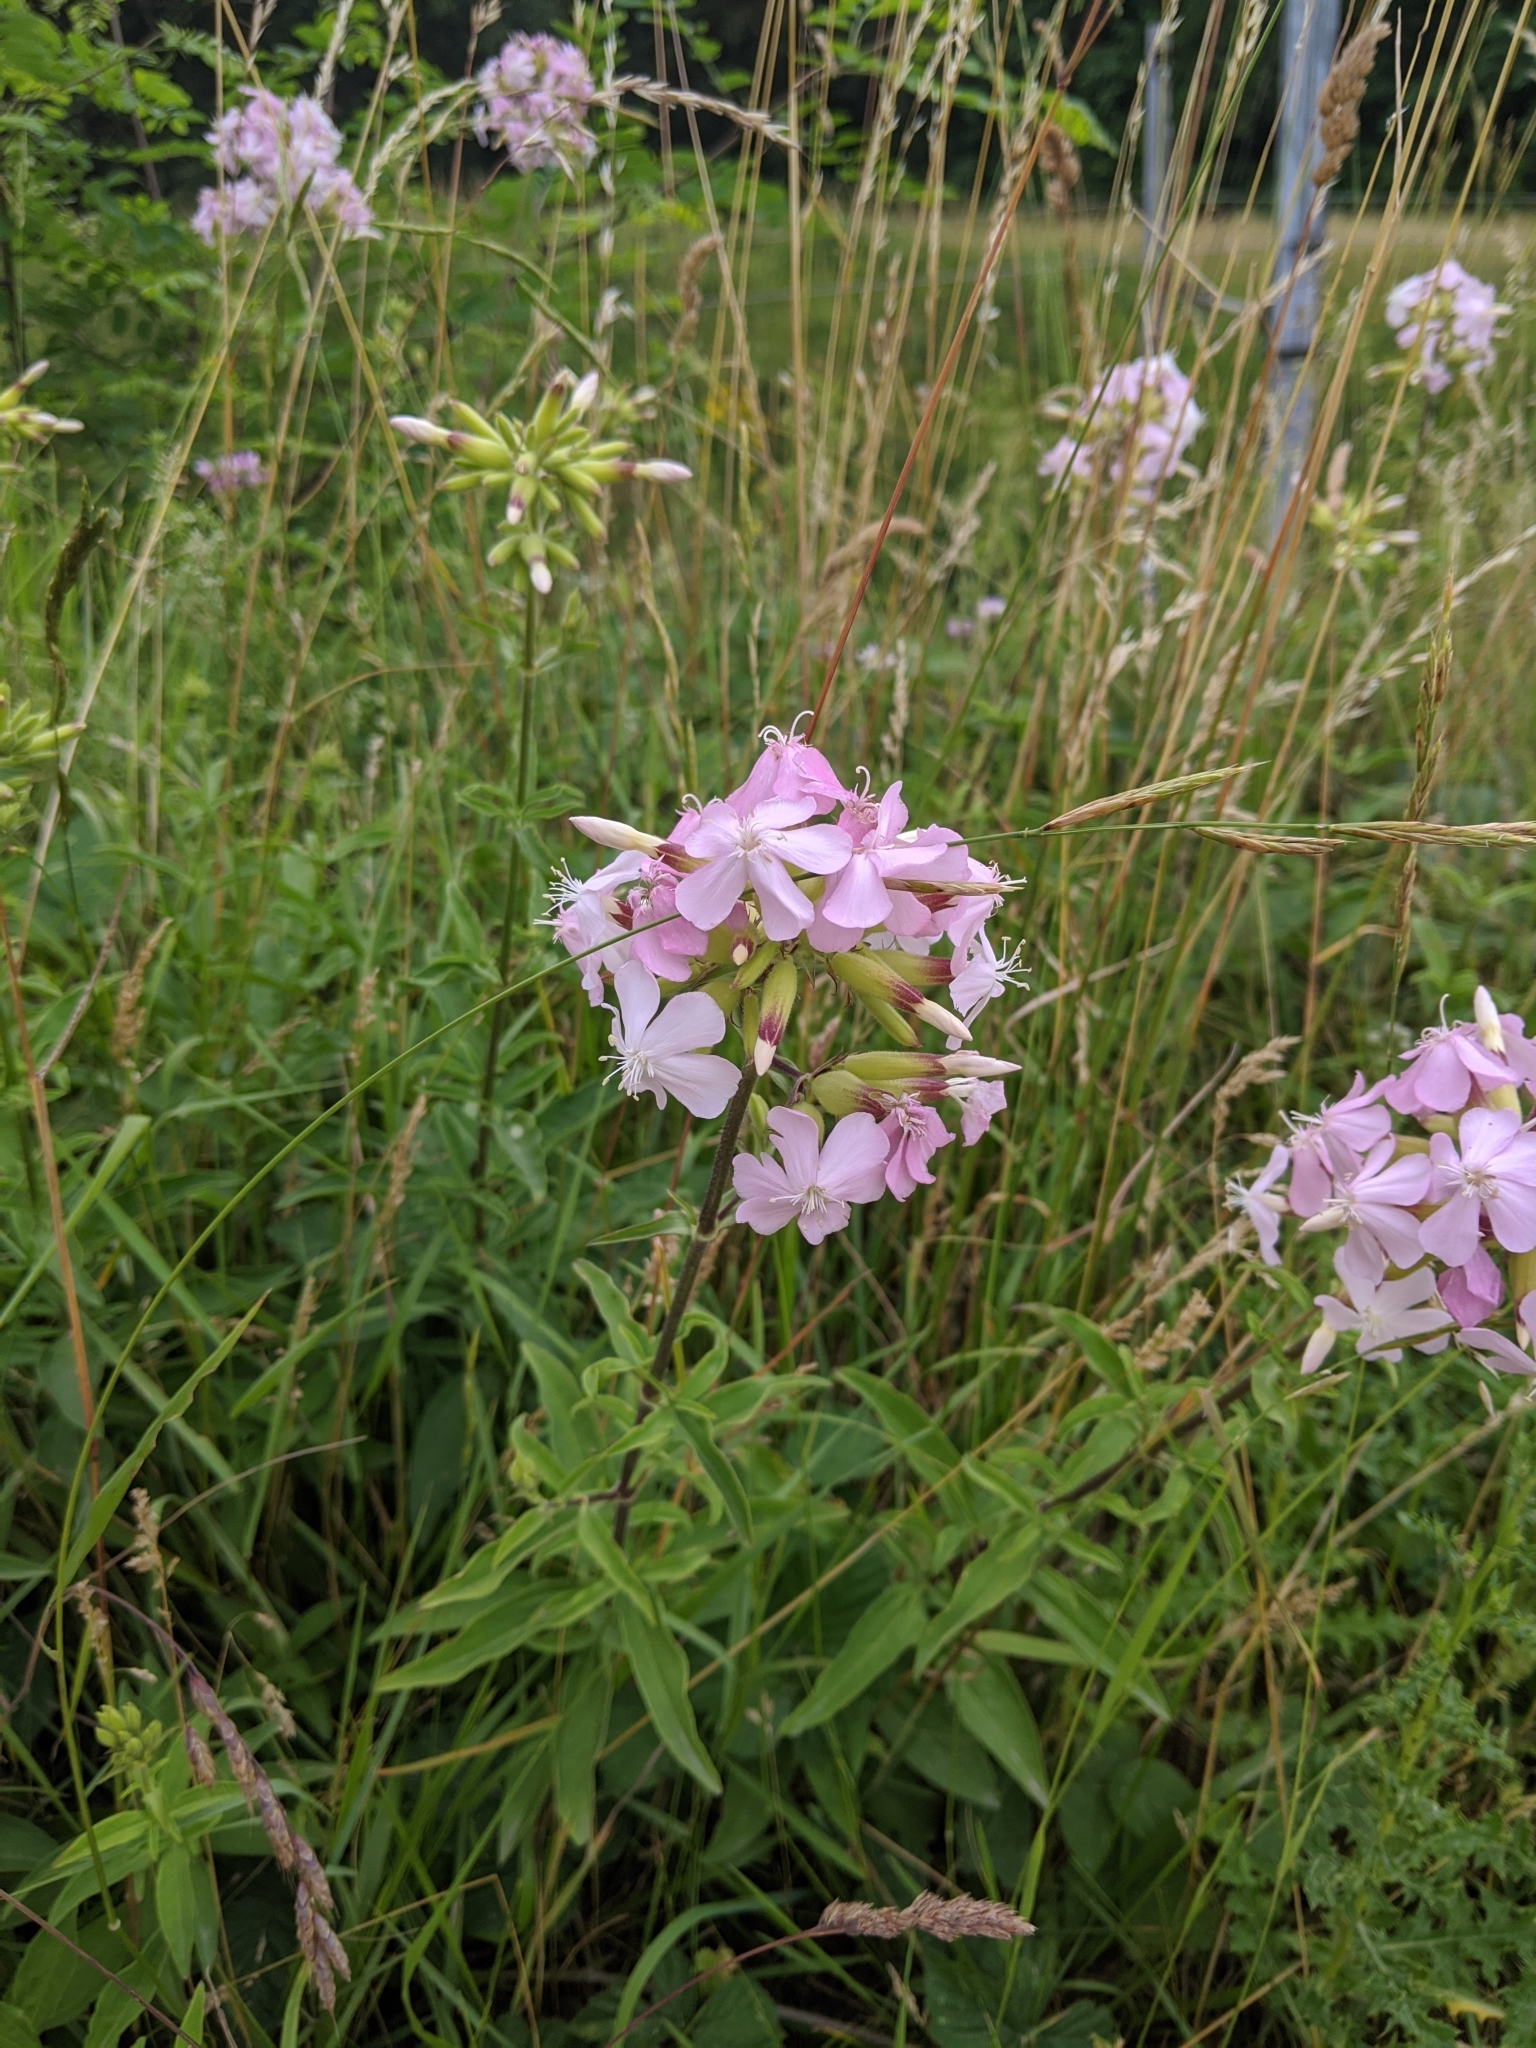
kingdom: Plantae
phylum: Tracheophyta
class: Magnoliopsida
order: Caryophyllales
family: Caryophyllaceae
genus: Saponaria
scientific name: Saponaria officinalis
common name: Soapwort
